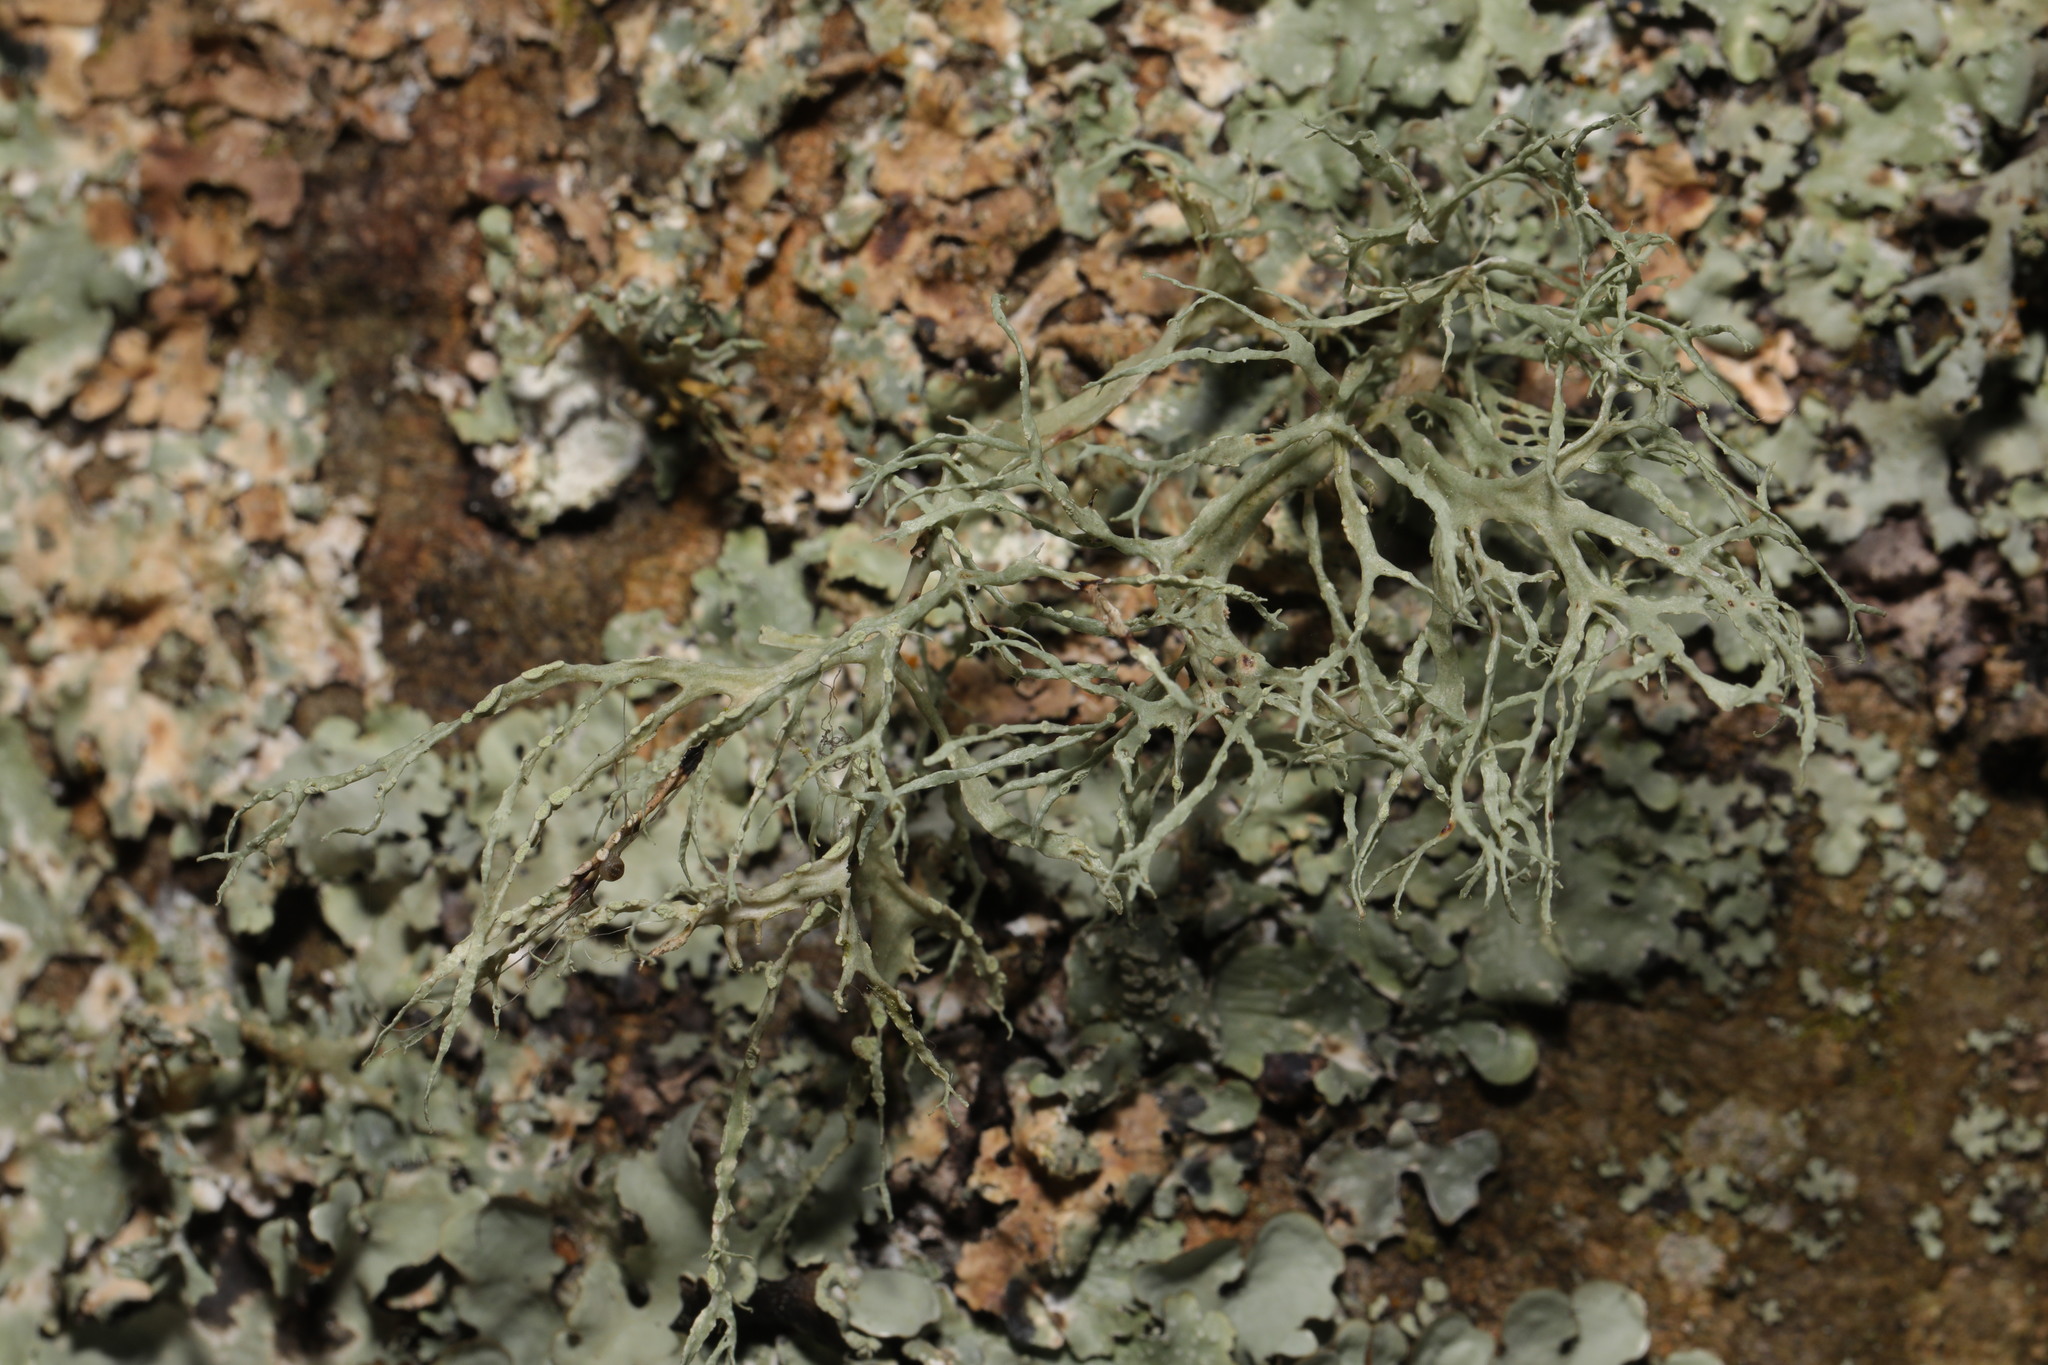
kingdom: Fungi
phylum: Ascomycota
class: Lecanoromycetes
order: Lecanorales
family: Ramalinaceae
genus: Ramalina
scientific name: Ramalina farinacea
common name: Farinose cartilage lichen
